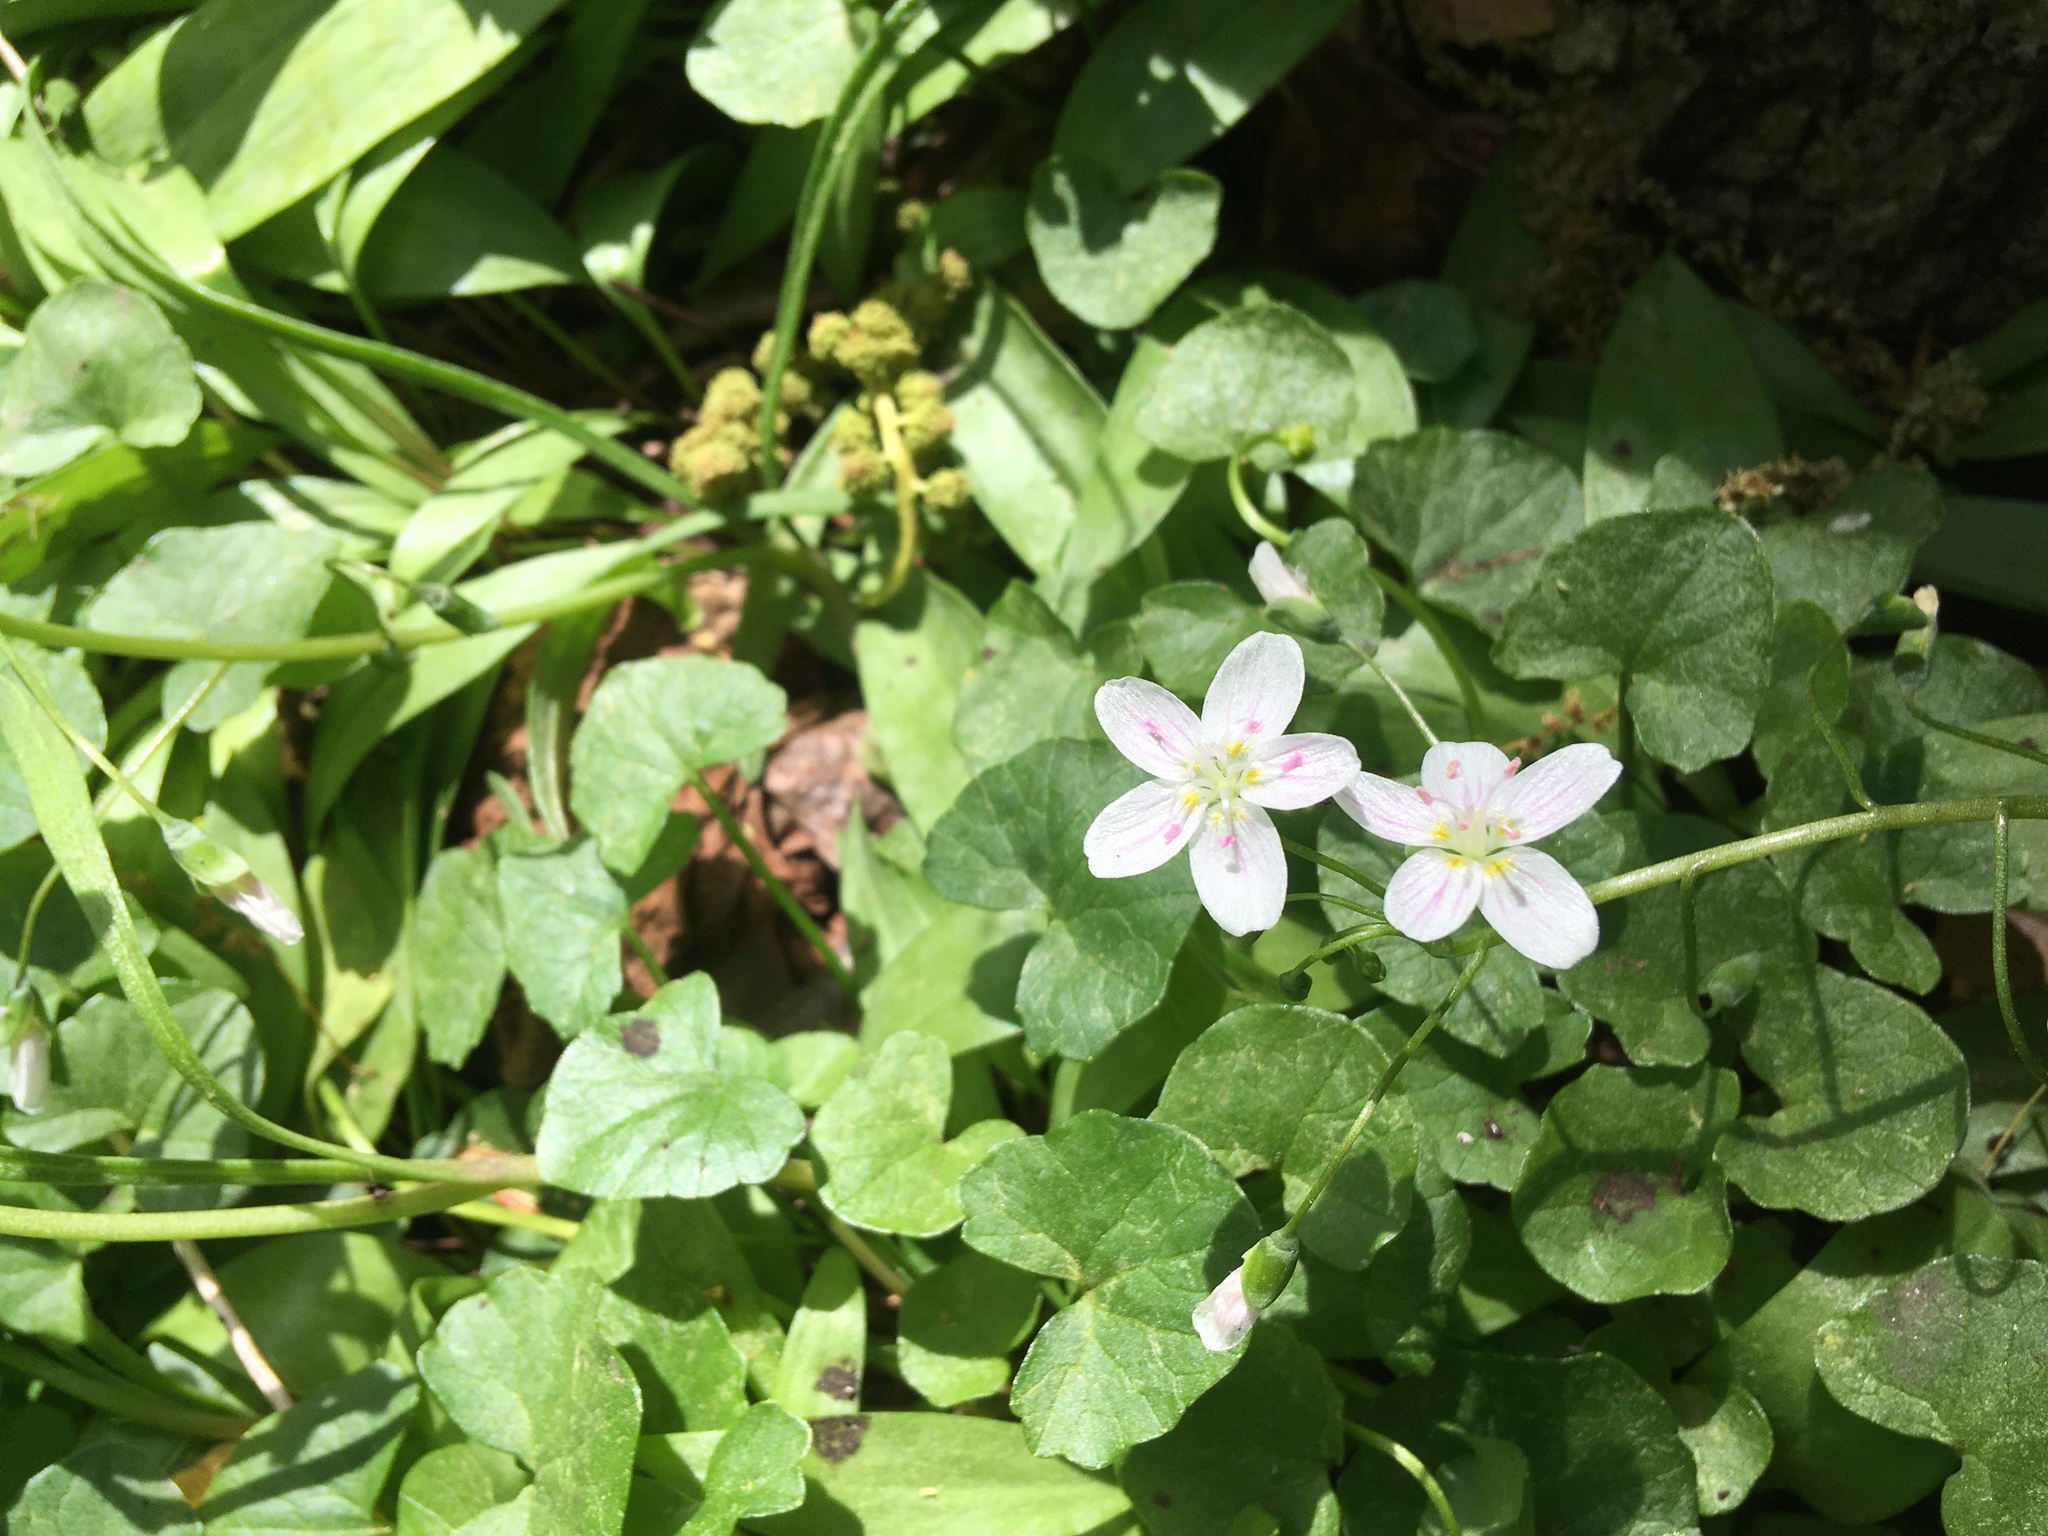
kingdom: Plantae
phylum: Tracheophyta
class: Magnoliopsida
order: Caryophyllales
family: Montiaceae
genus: Claytonia
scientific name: Claytonia virginica
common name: Virginia springbeauty
